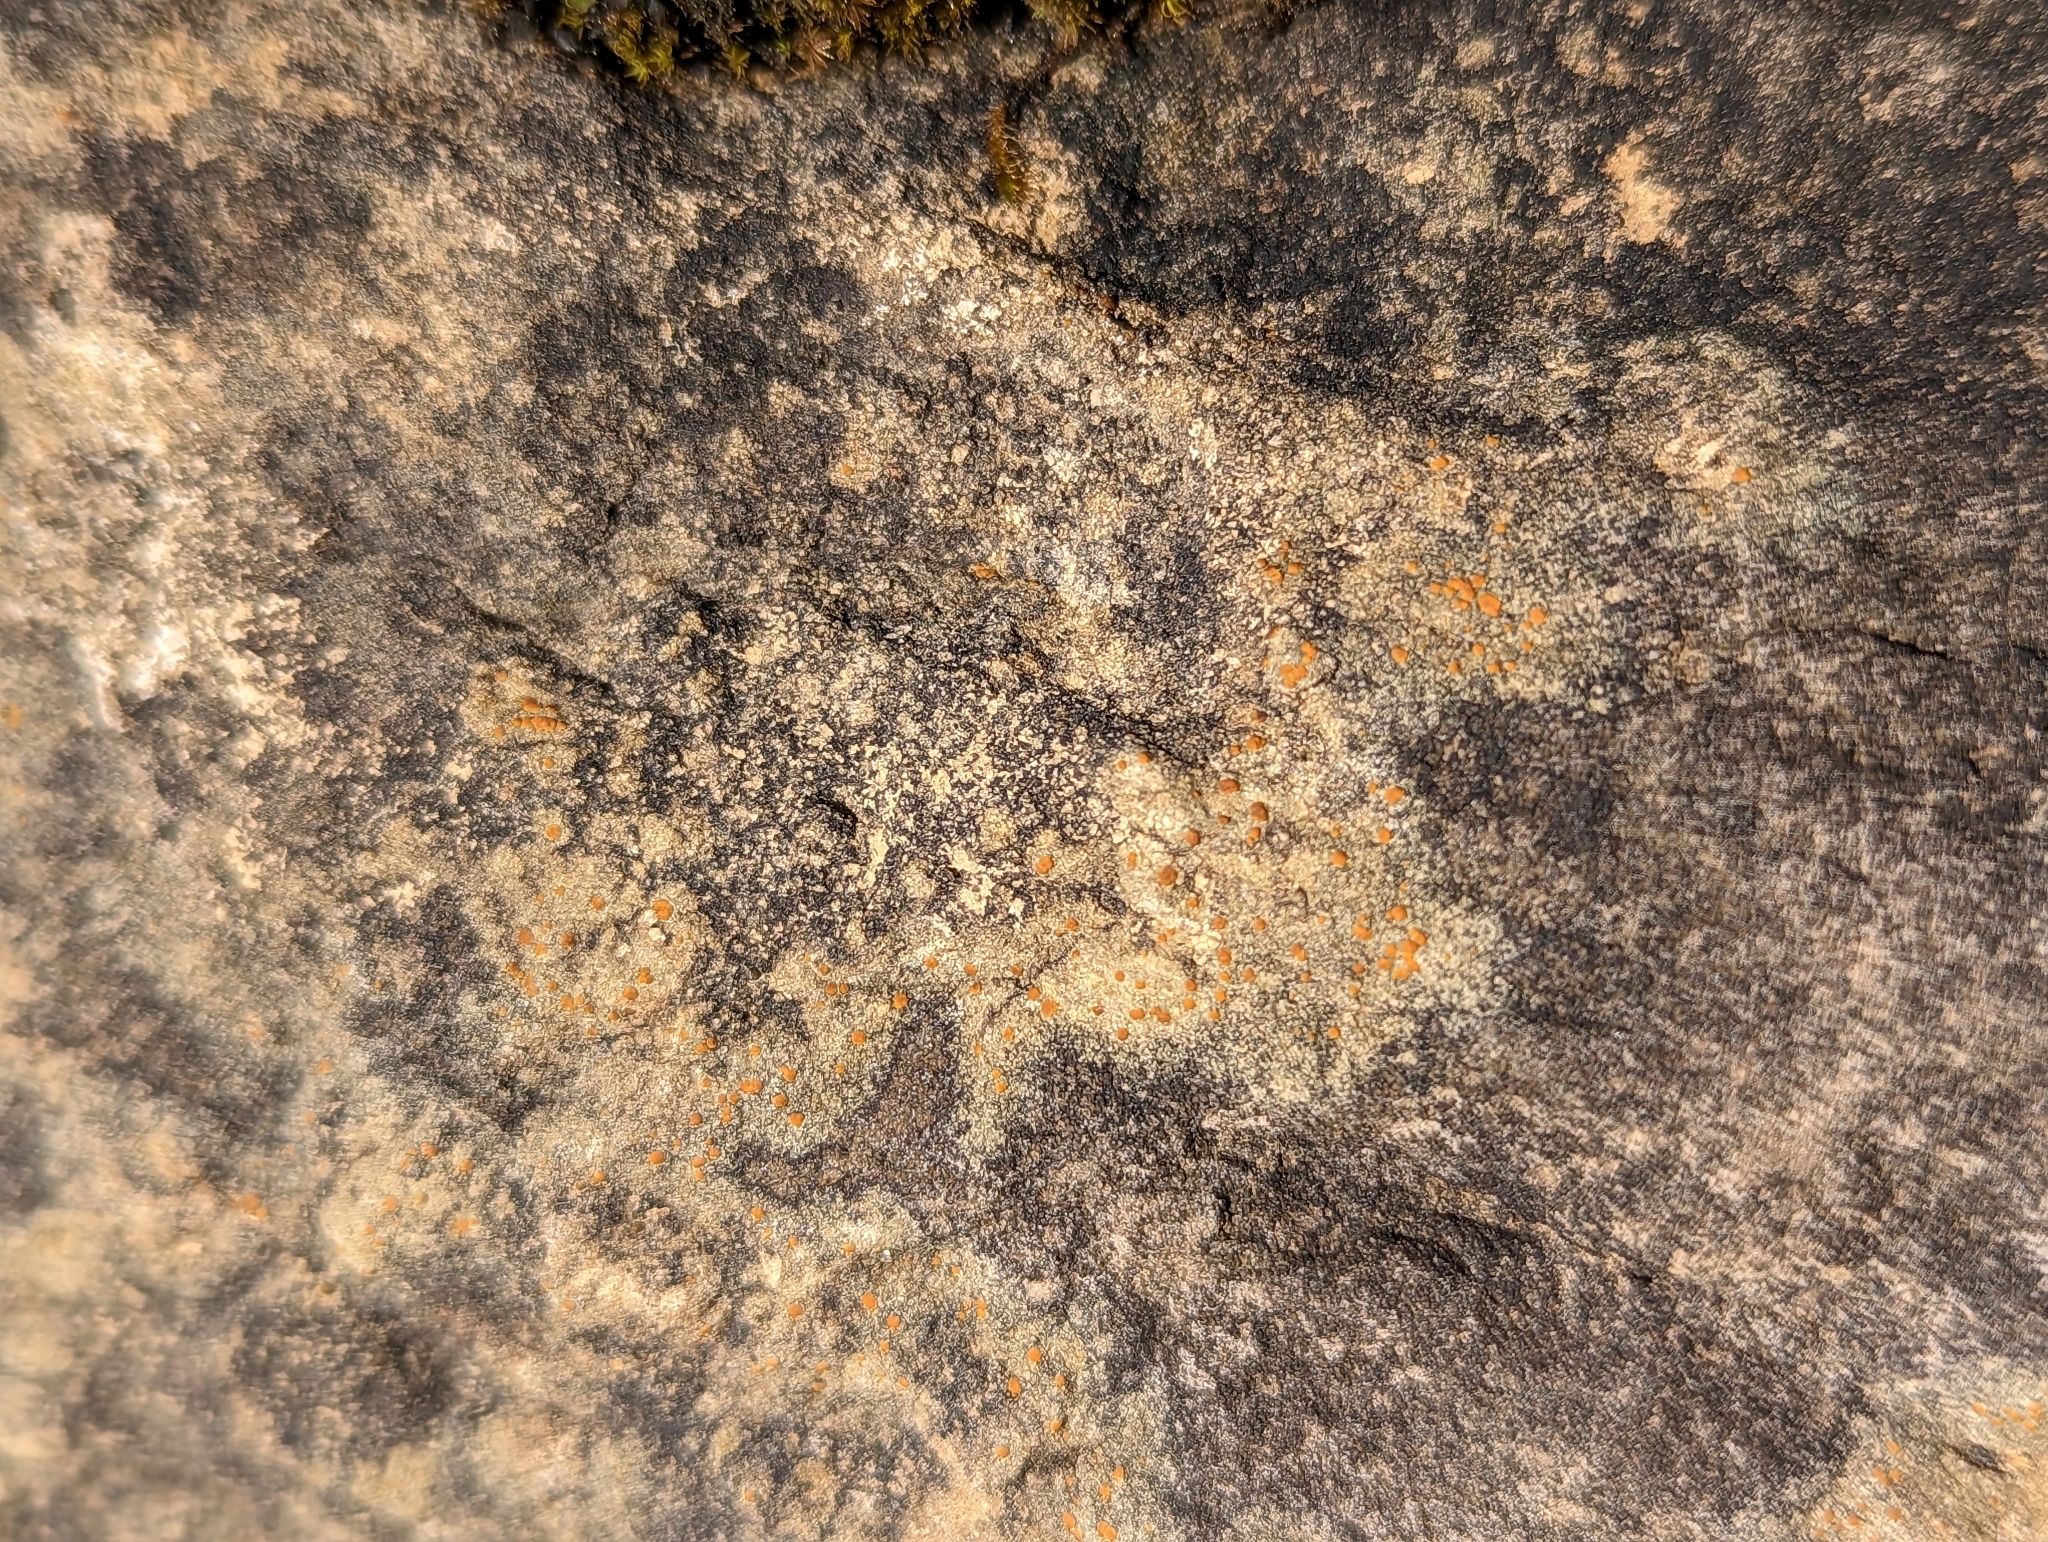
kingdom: Fungi
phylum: Ascomycota
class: Lecanoromycetes
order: Teloschistales
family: Teloschistaceae
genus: Gyalolechia
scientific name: Gyalolechia flavovirescens
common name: Sulphur firedot
